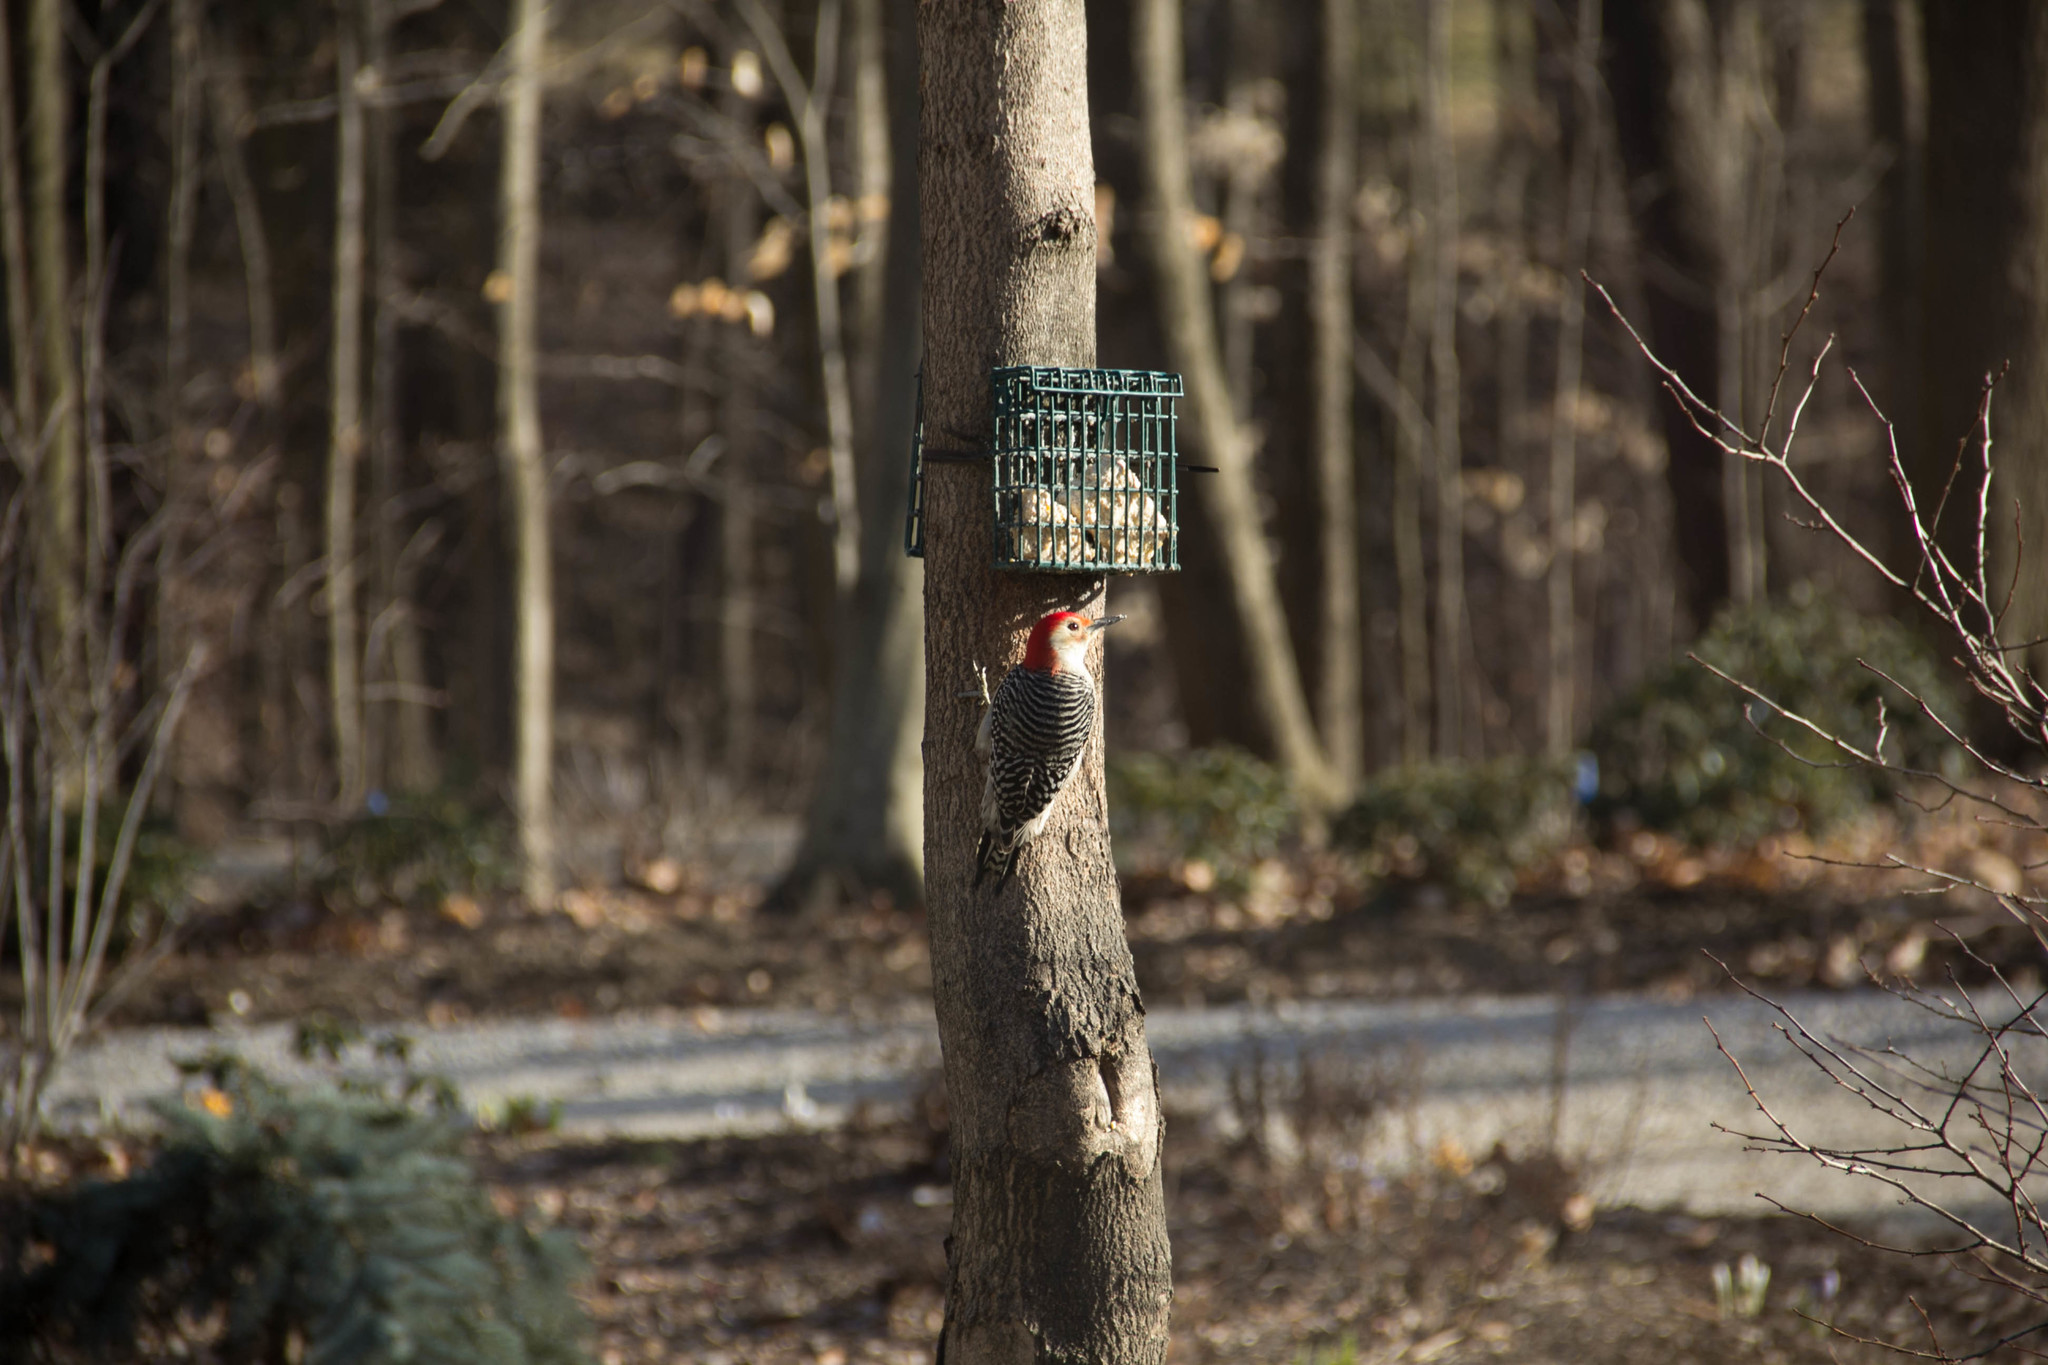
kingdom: Animalia
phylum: Chordata
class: Aves
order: Piciformes
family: Picidae
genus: Melanerpes
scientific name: Melanerpes carolinus
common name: Red-bellied woodpecker
